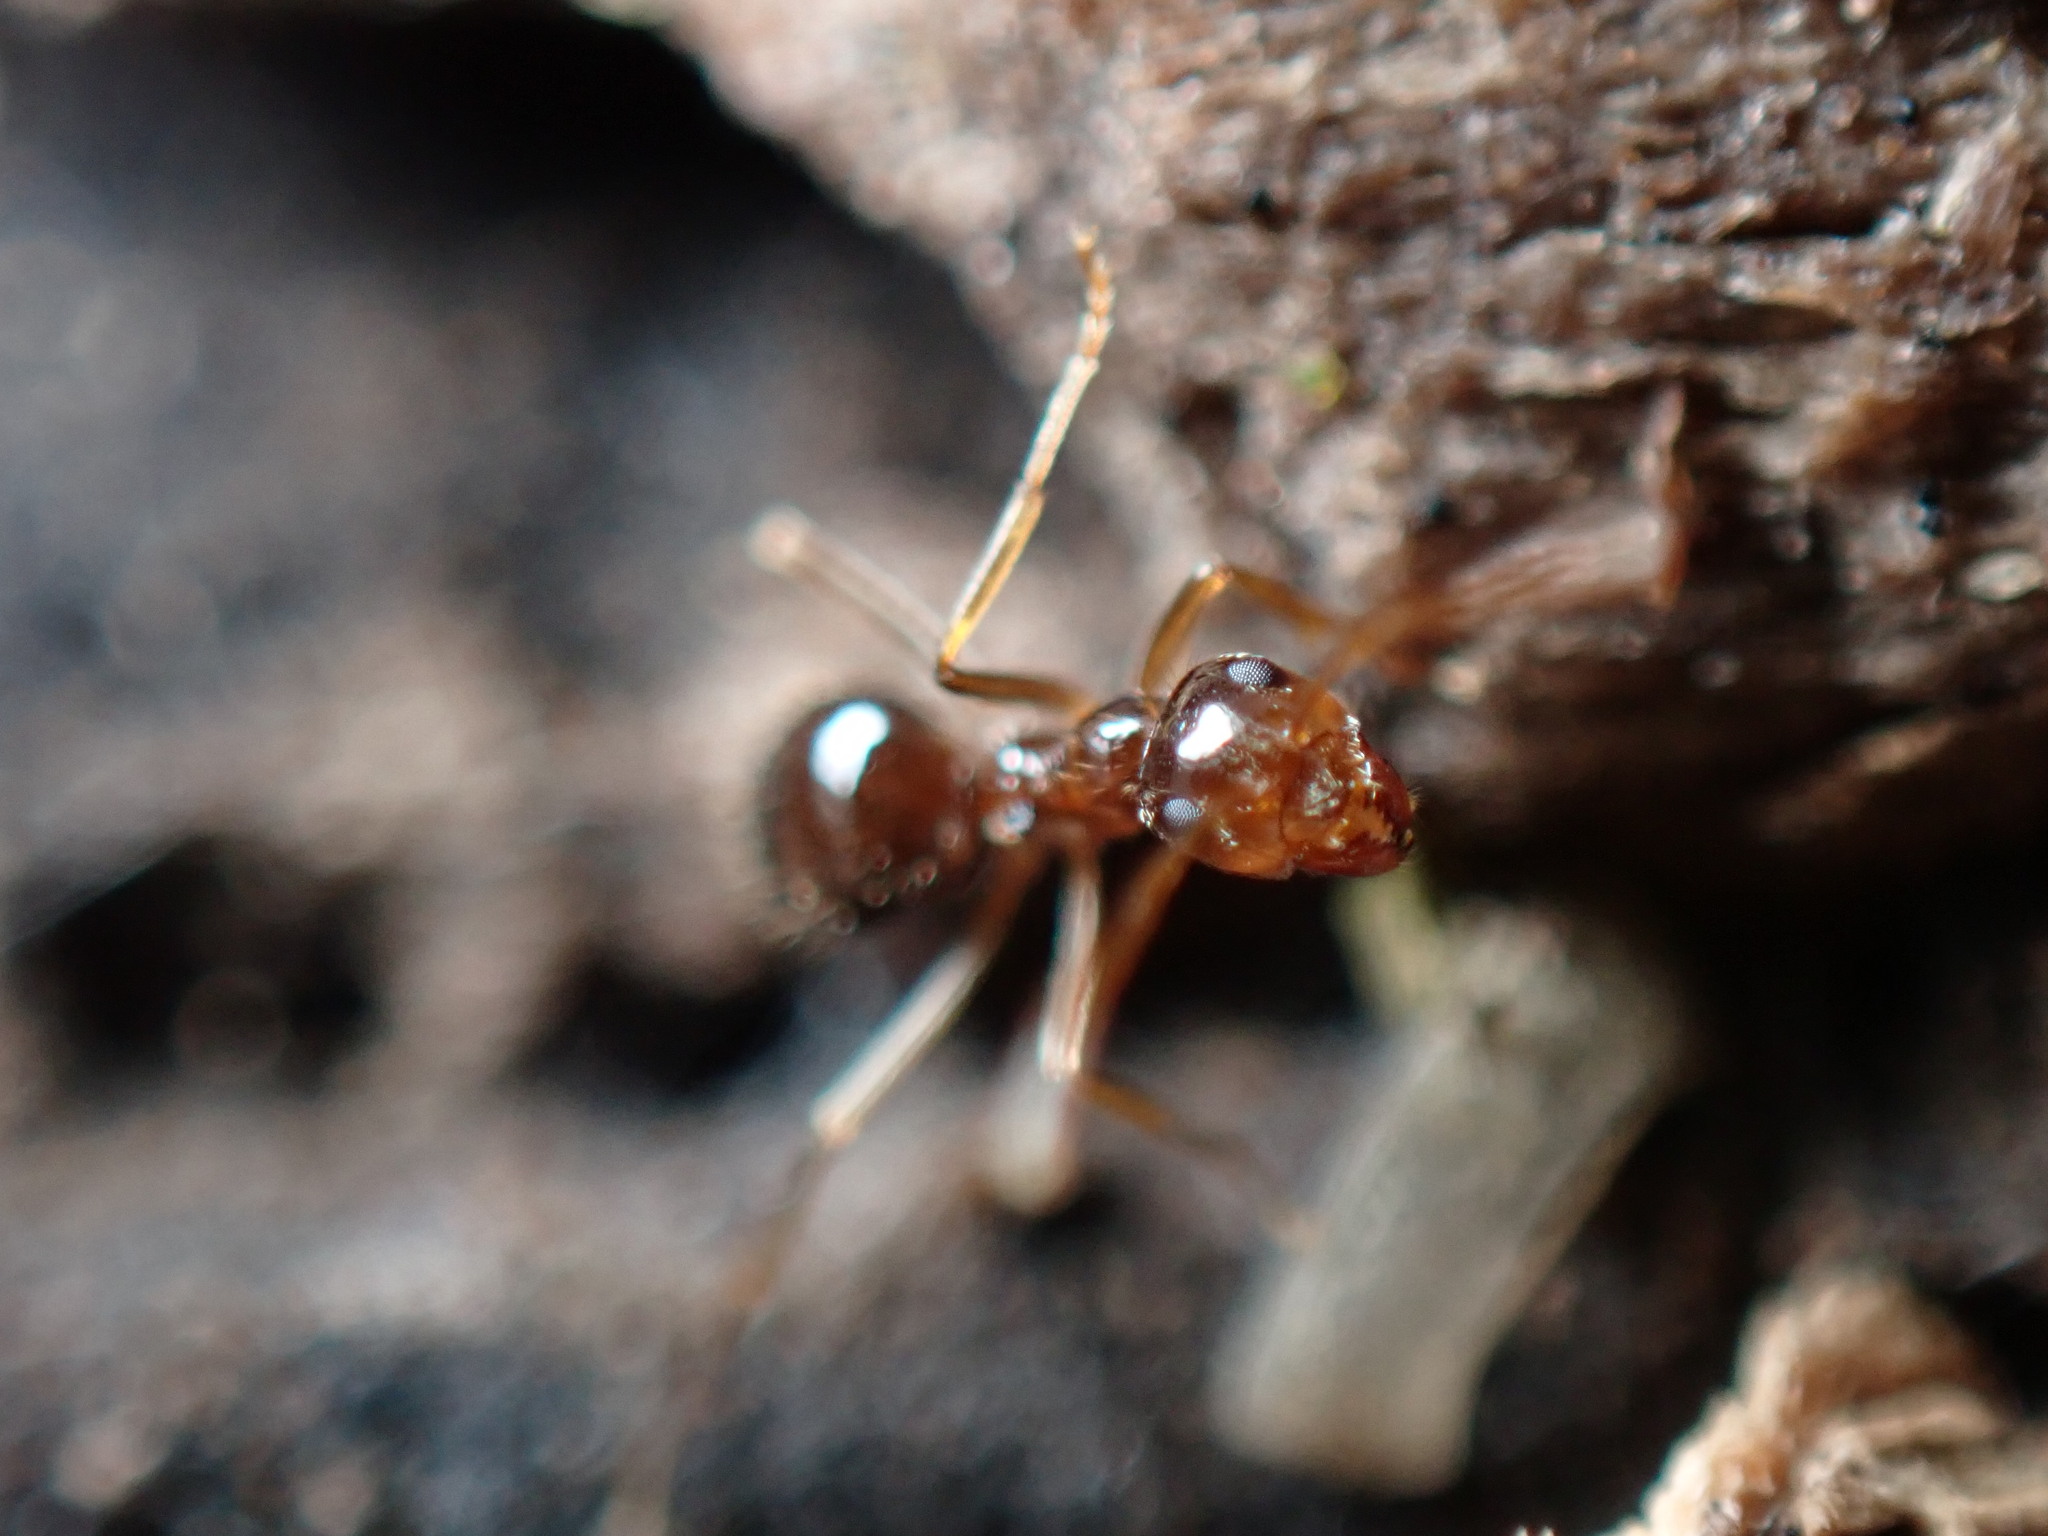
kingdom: Animalia
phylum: Arthropoda
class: Insecta
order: Hymenoptera
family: Formicidae
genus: Prenolepis
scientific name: Prenolepis imparis
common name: Small honey ant
